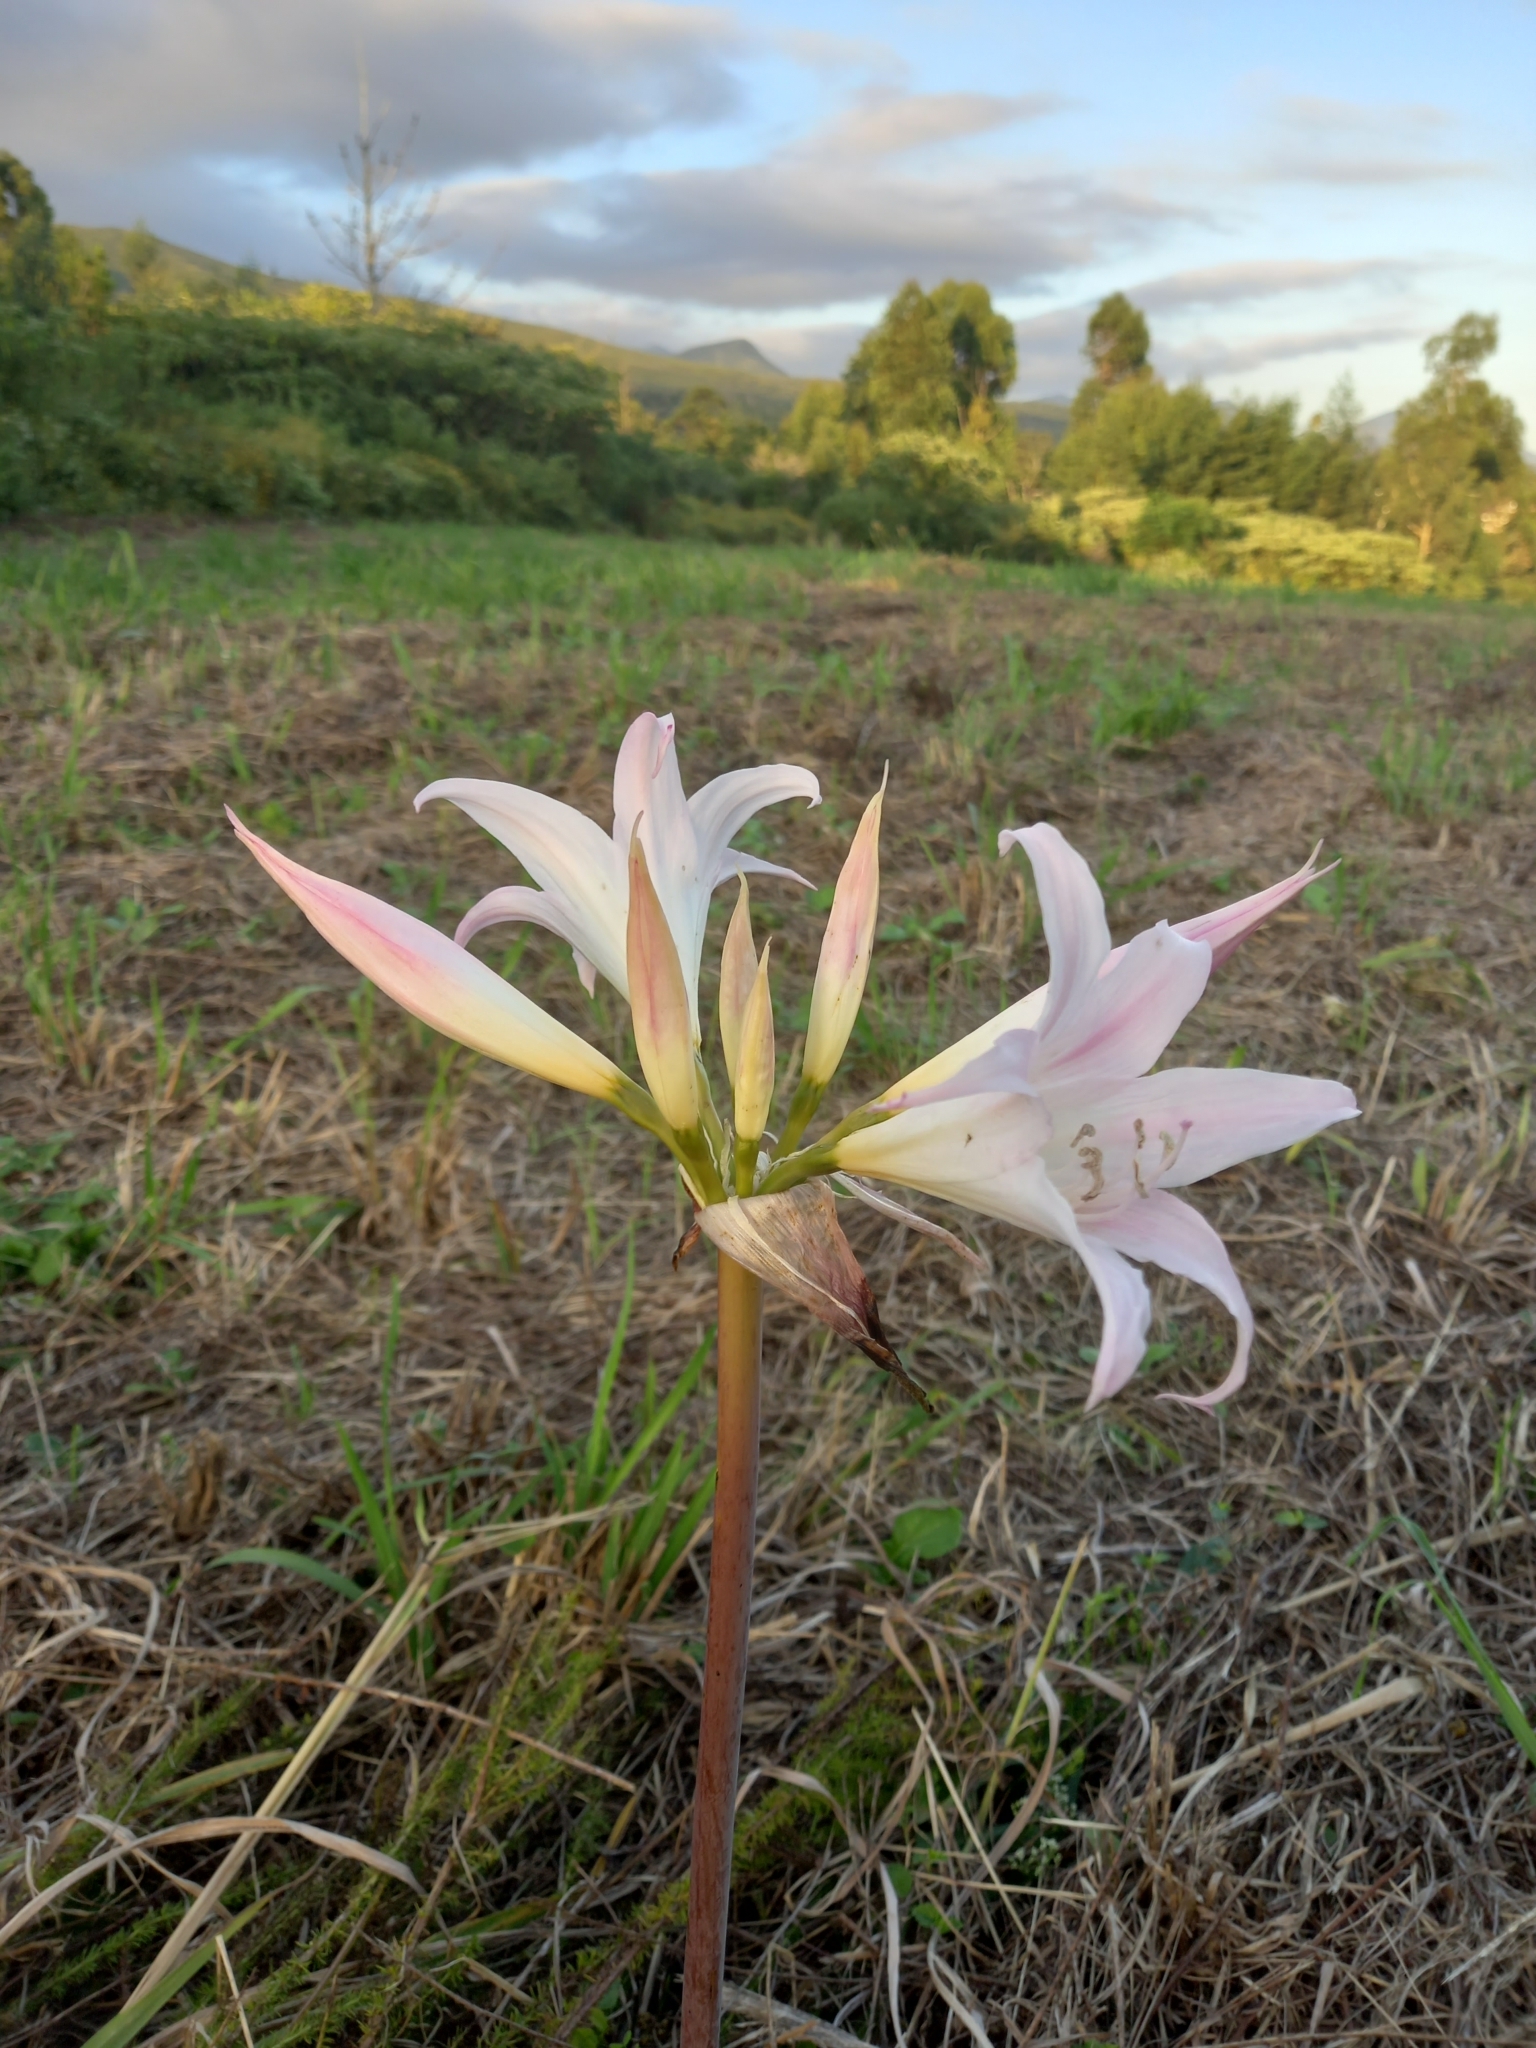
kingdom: Plantae
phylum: Tracheophyta
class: Liliopsida
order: Asparagales
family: Amaryllidaceae
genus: Amaryllis
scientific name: Amaryllis belladonna
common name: Jersey lily
